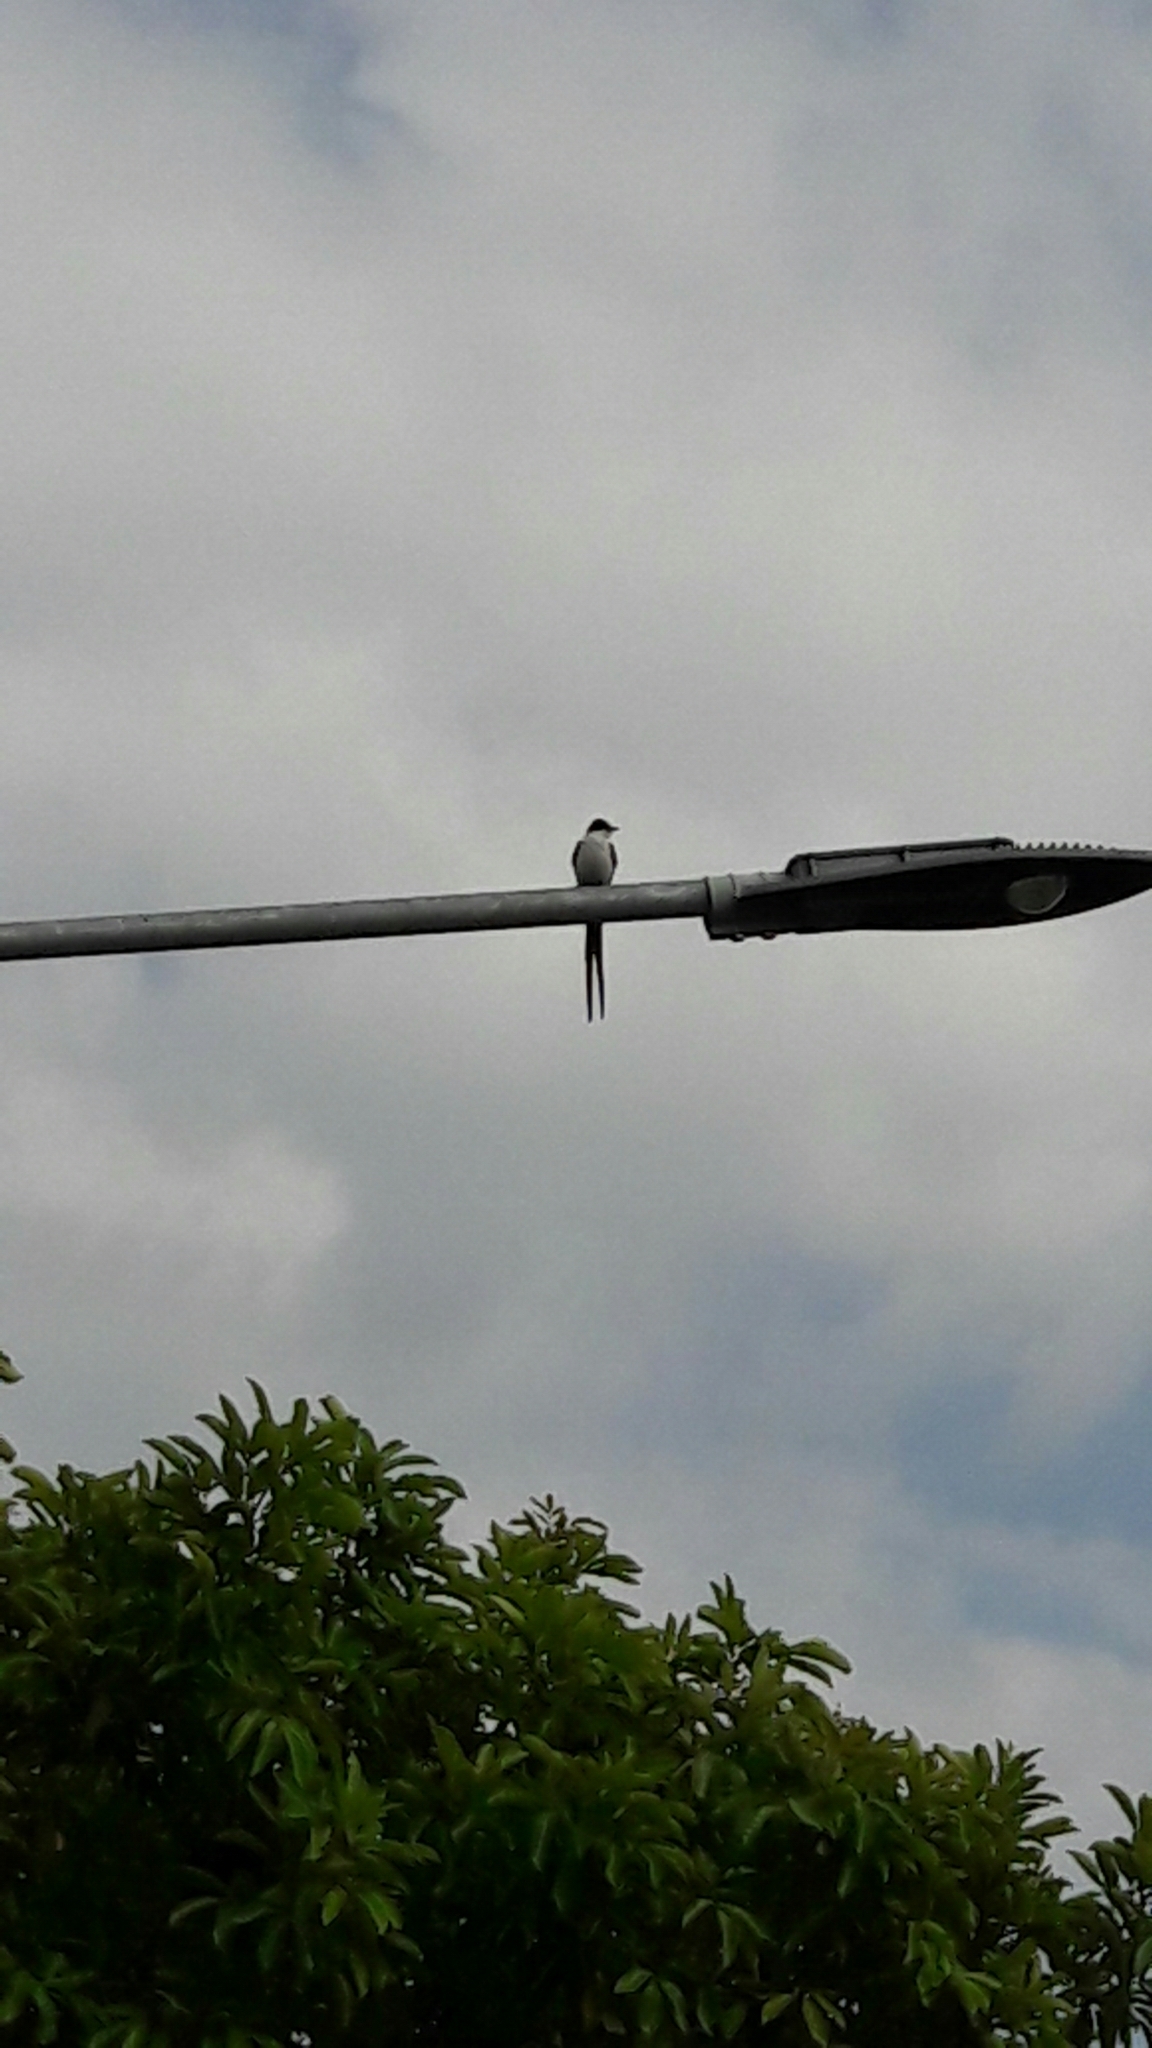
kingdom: Animalia
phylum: Chordata
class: Aves
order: Passeriformes
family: Tyrannidae
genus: Tyrannus
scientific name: Tyrannus savana
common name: Fork-tailed flycatcher
